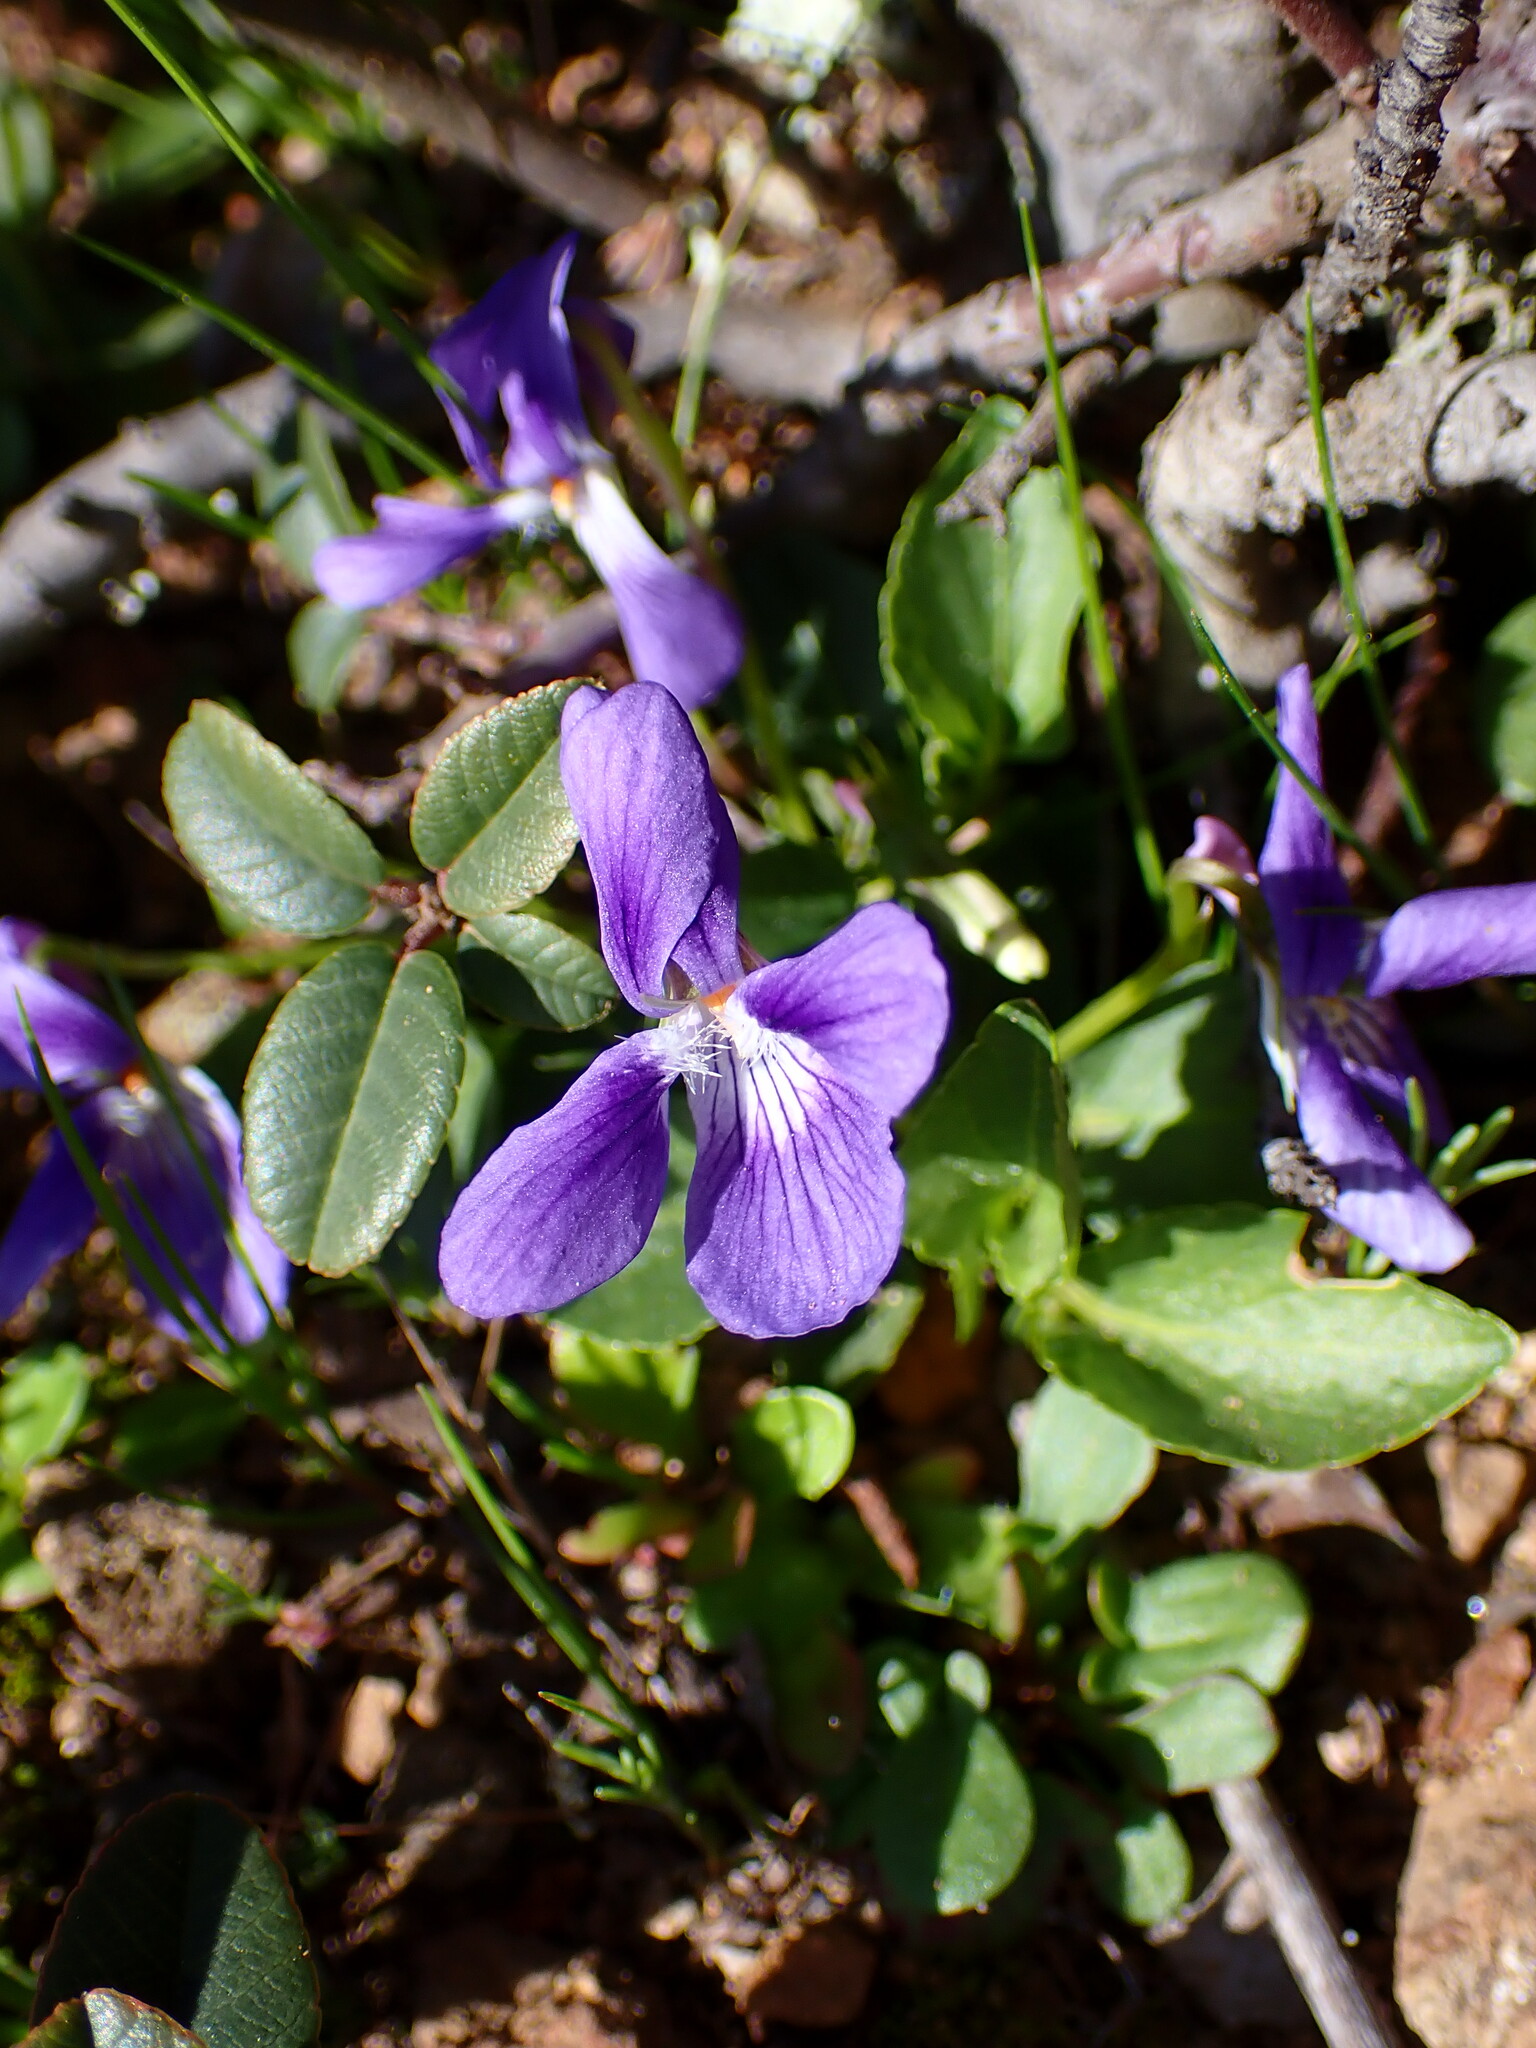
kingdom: Plantae
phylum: Tracheophyta
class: Magnoliopsida
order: Malpighiales
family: Violaceae
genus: Viola
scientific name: Viola adunca
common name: Sand violet
